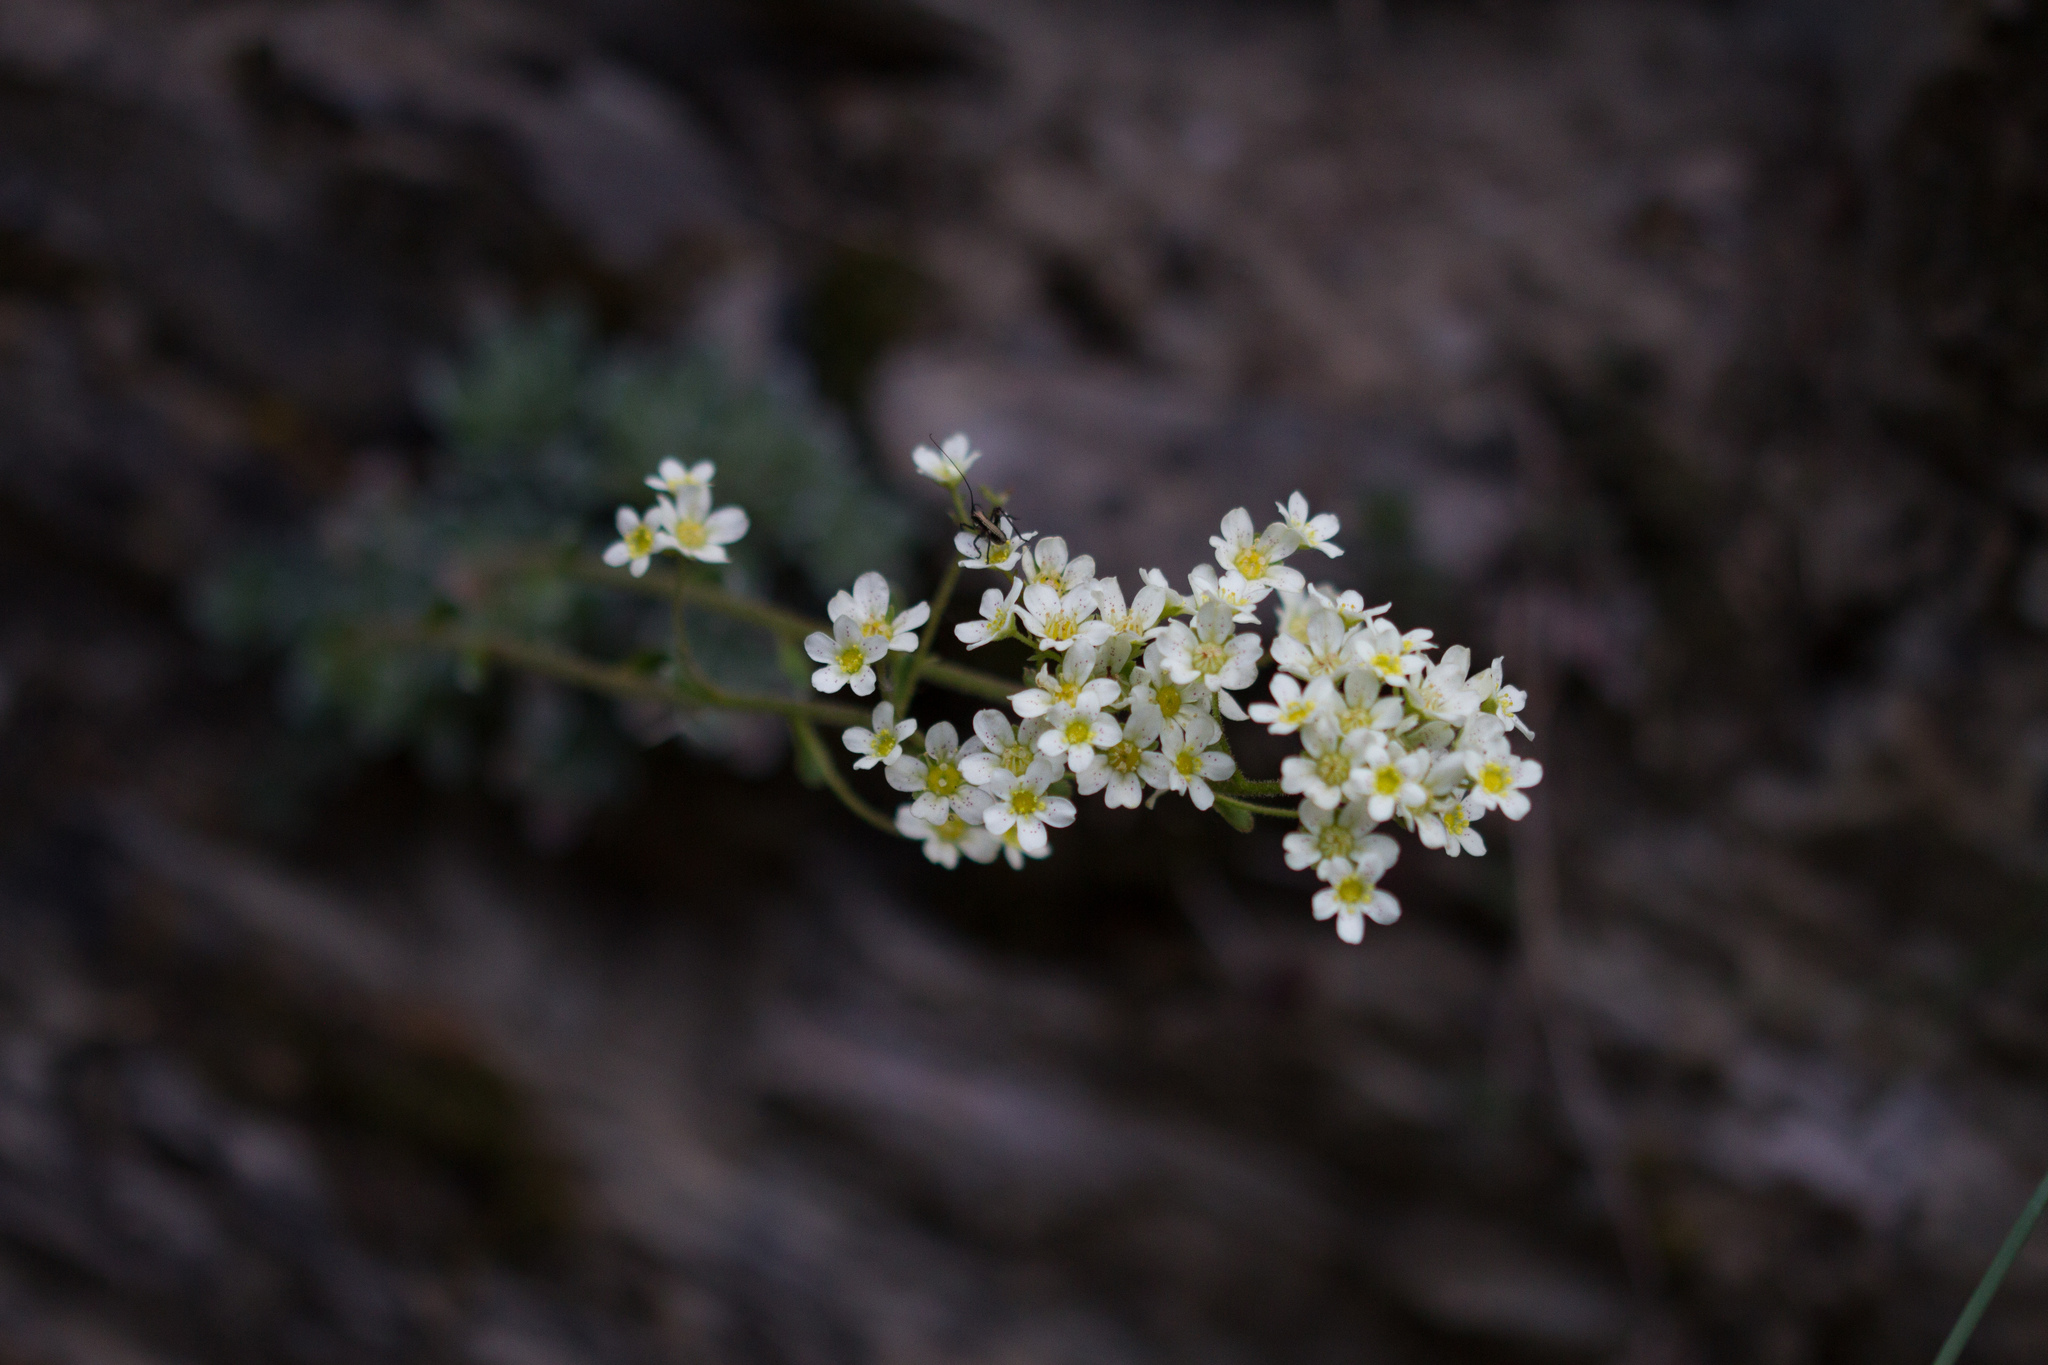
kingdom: Plantae
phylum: Tracheophyta
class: Magnoliopsida
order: Saxifragales
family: Saxifragaceae
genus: Saxifraga
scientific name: Saxifraga paniculata
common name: Livelong saxifrage
